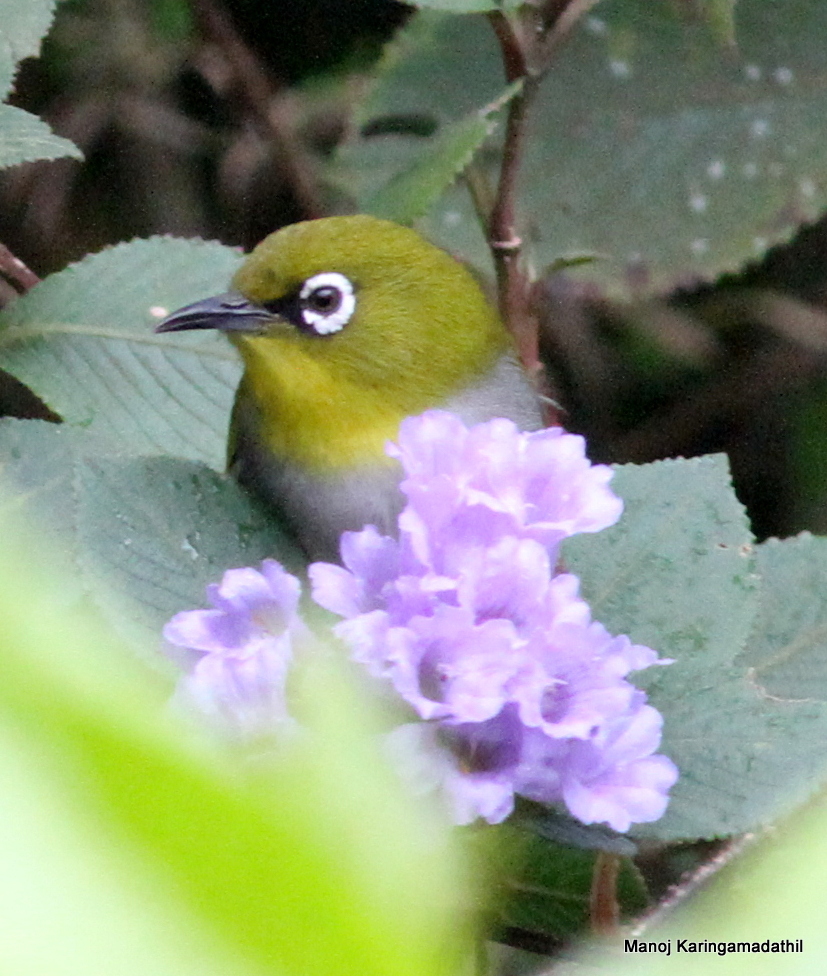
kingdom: Animalia
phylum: Chordata
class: Aves
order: Passeriformes
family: Zosteropidae
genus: Zosterops
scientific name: Zosterops palpebrosus
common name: Oriental white-eye
